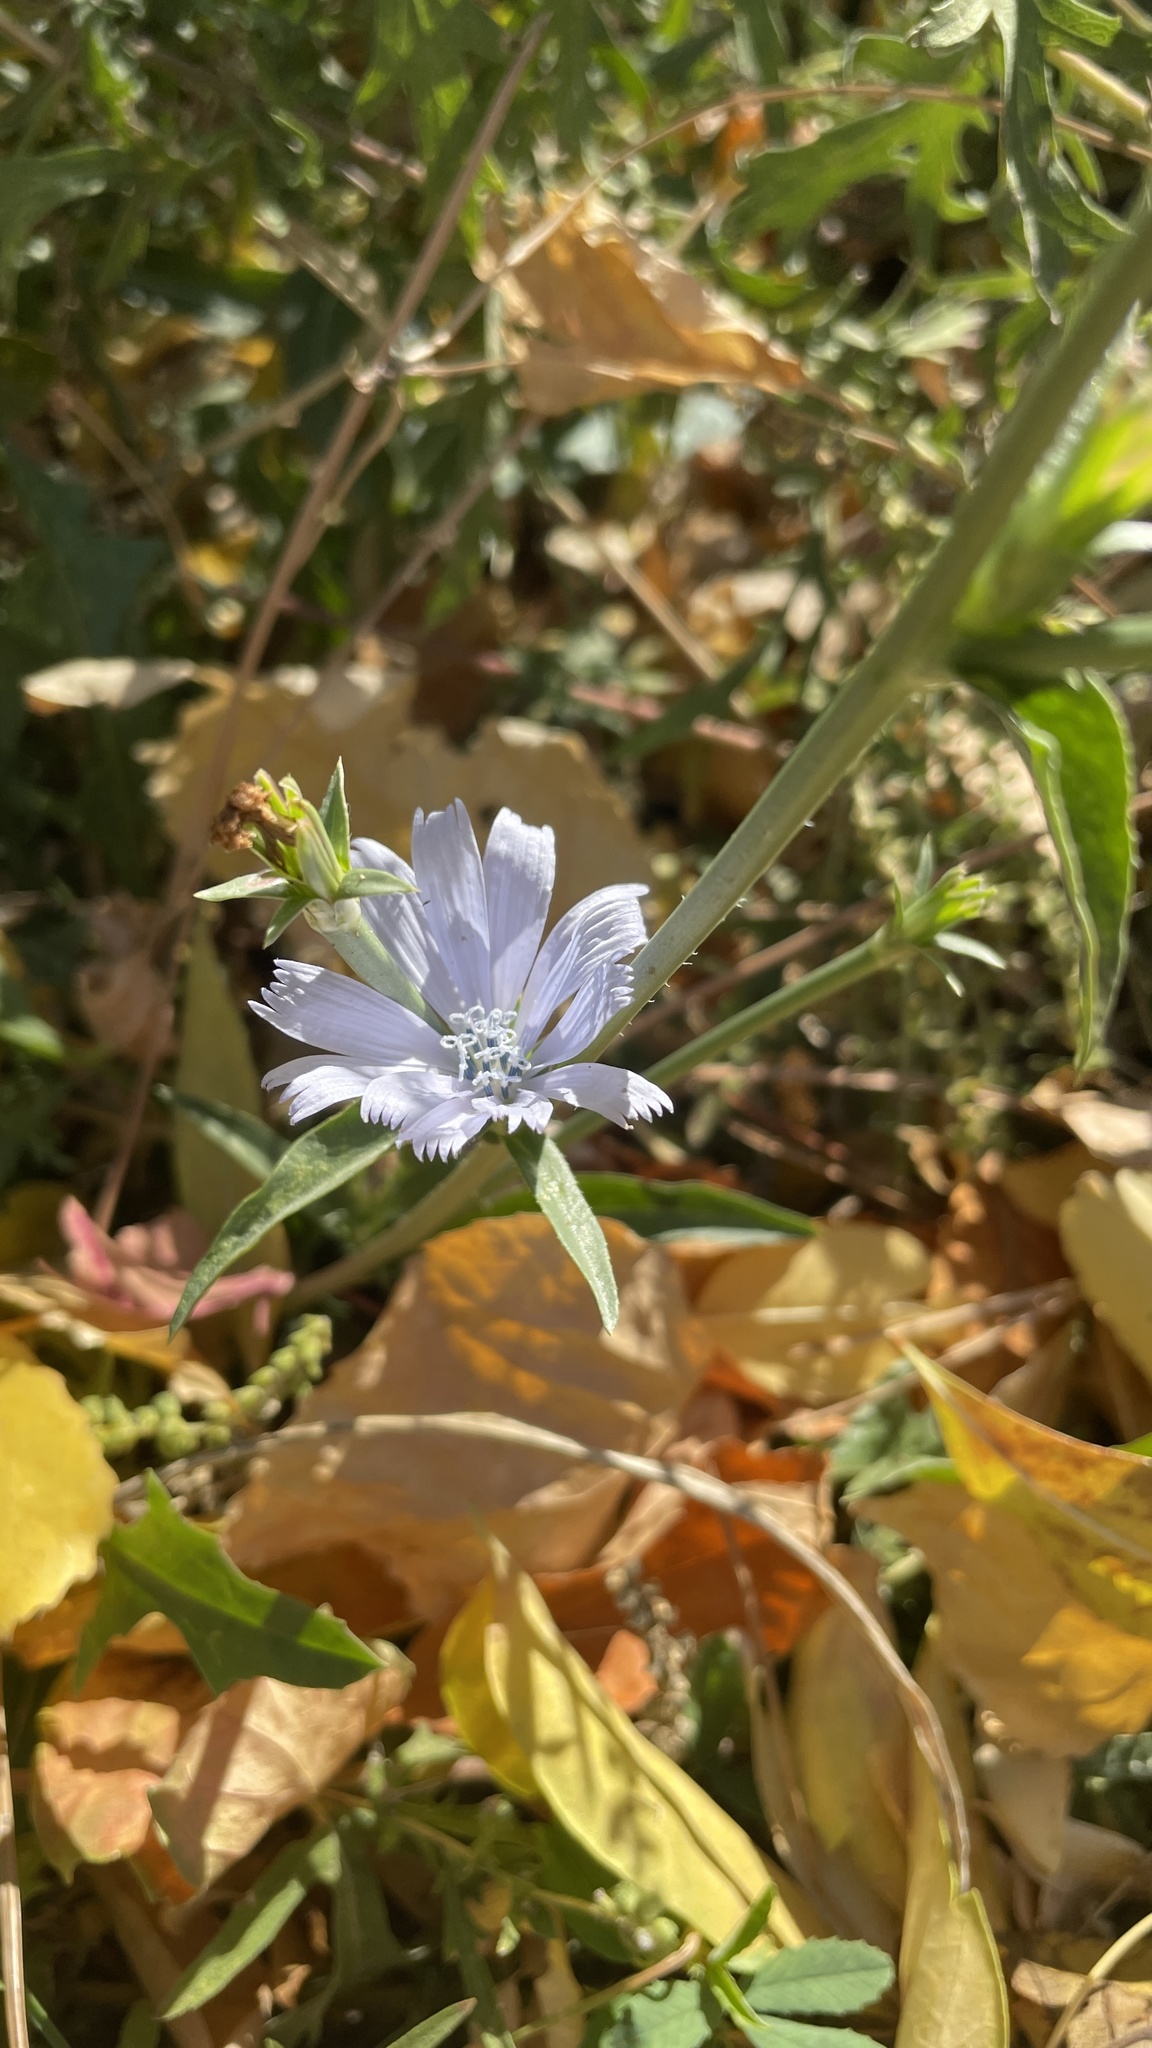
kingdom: Plantae
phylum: Tracheophyta
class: Magnoliopsida
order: Asterales
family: Asteraceae
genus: Cichorium
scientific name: Cichorium intybus
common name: Chicory
